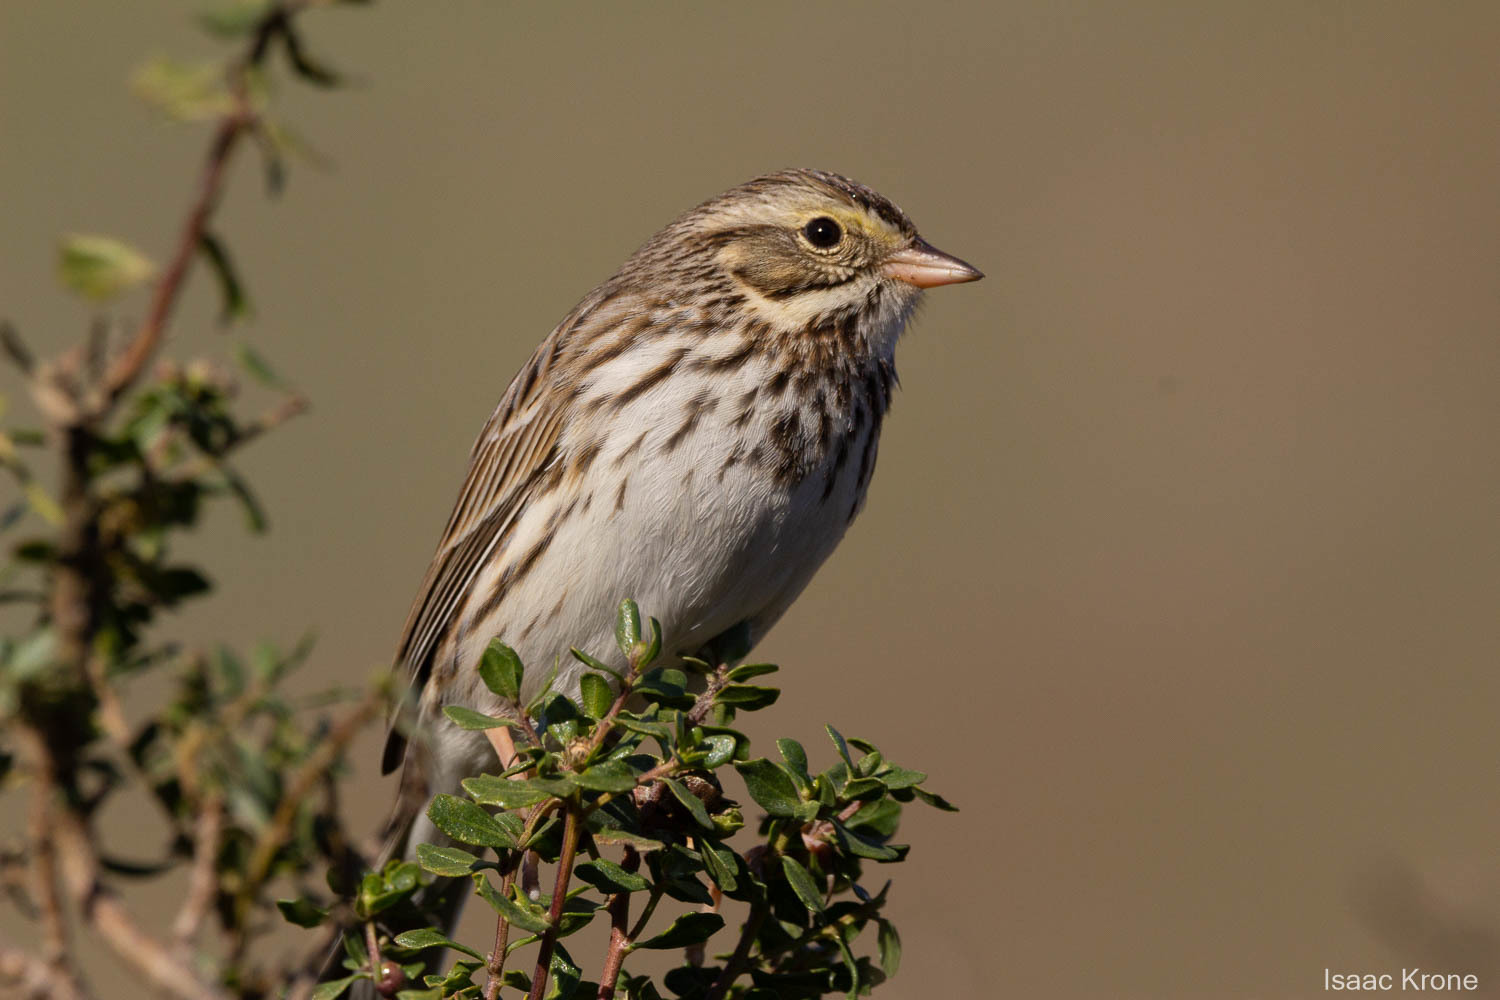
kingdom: Animalia
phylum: Chordata
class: Aves
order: Passeriformes
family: Passerellidae
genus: Passerculus
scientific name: Passerculus sandwichensis
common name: Savannah sparrow
